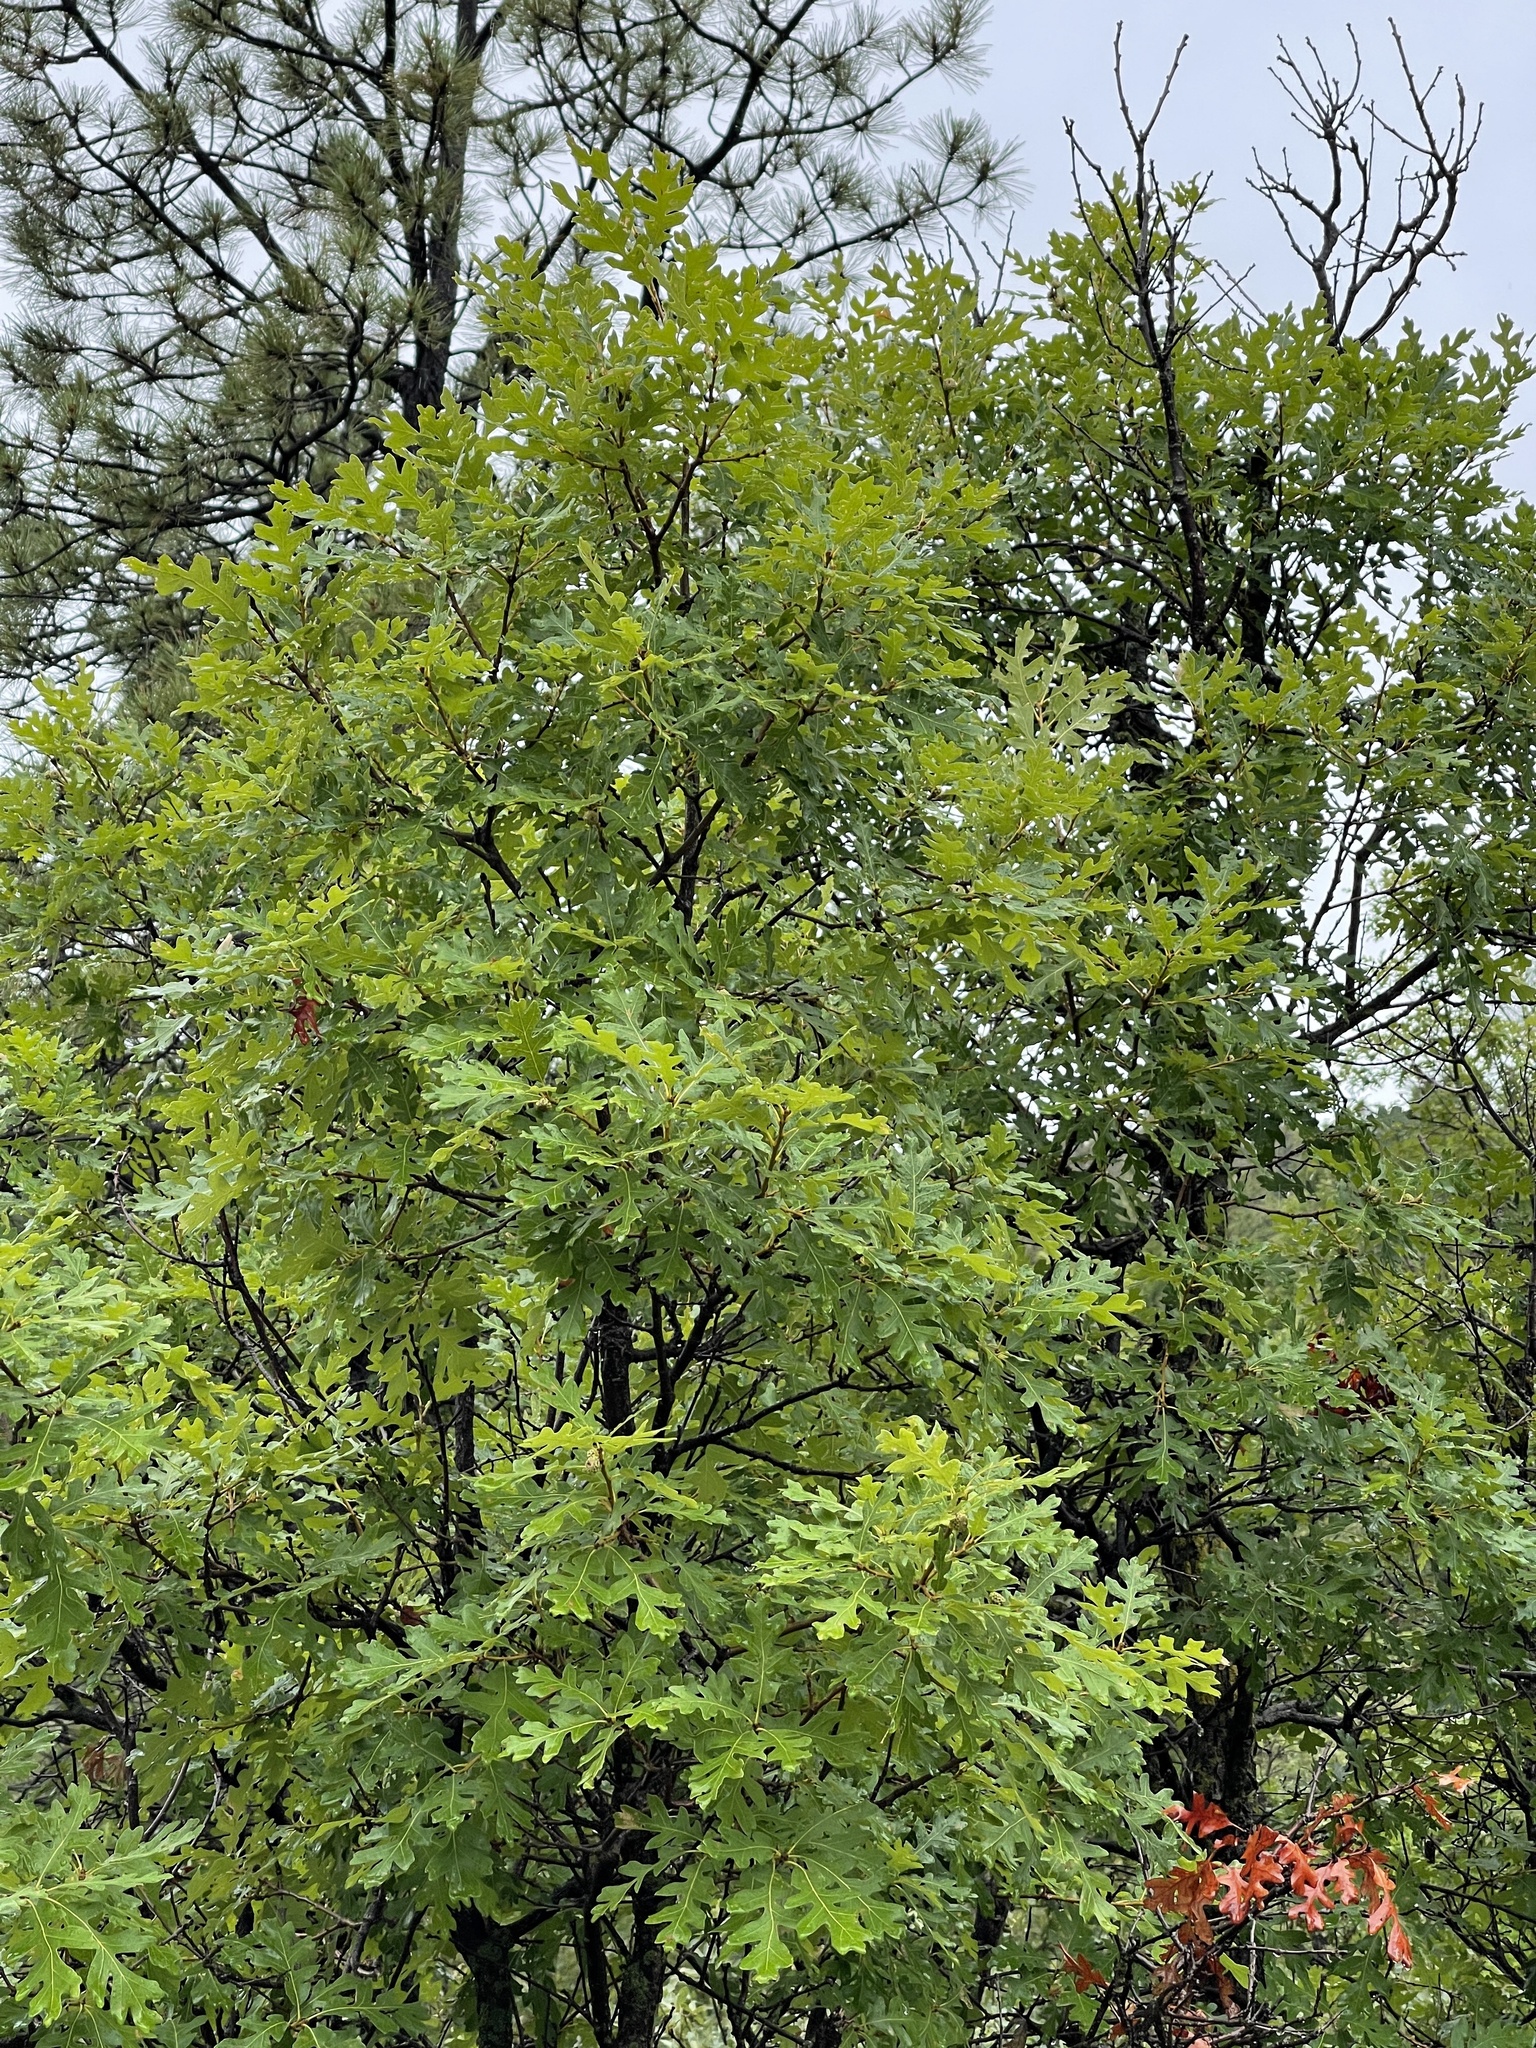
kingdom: Plantae
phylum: Tracheophyta
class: Magnoliopsida
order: Fagales
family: Fagaceae
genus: Quercus
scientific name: Quercus gambelii
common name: Gambel oak
